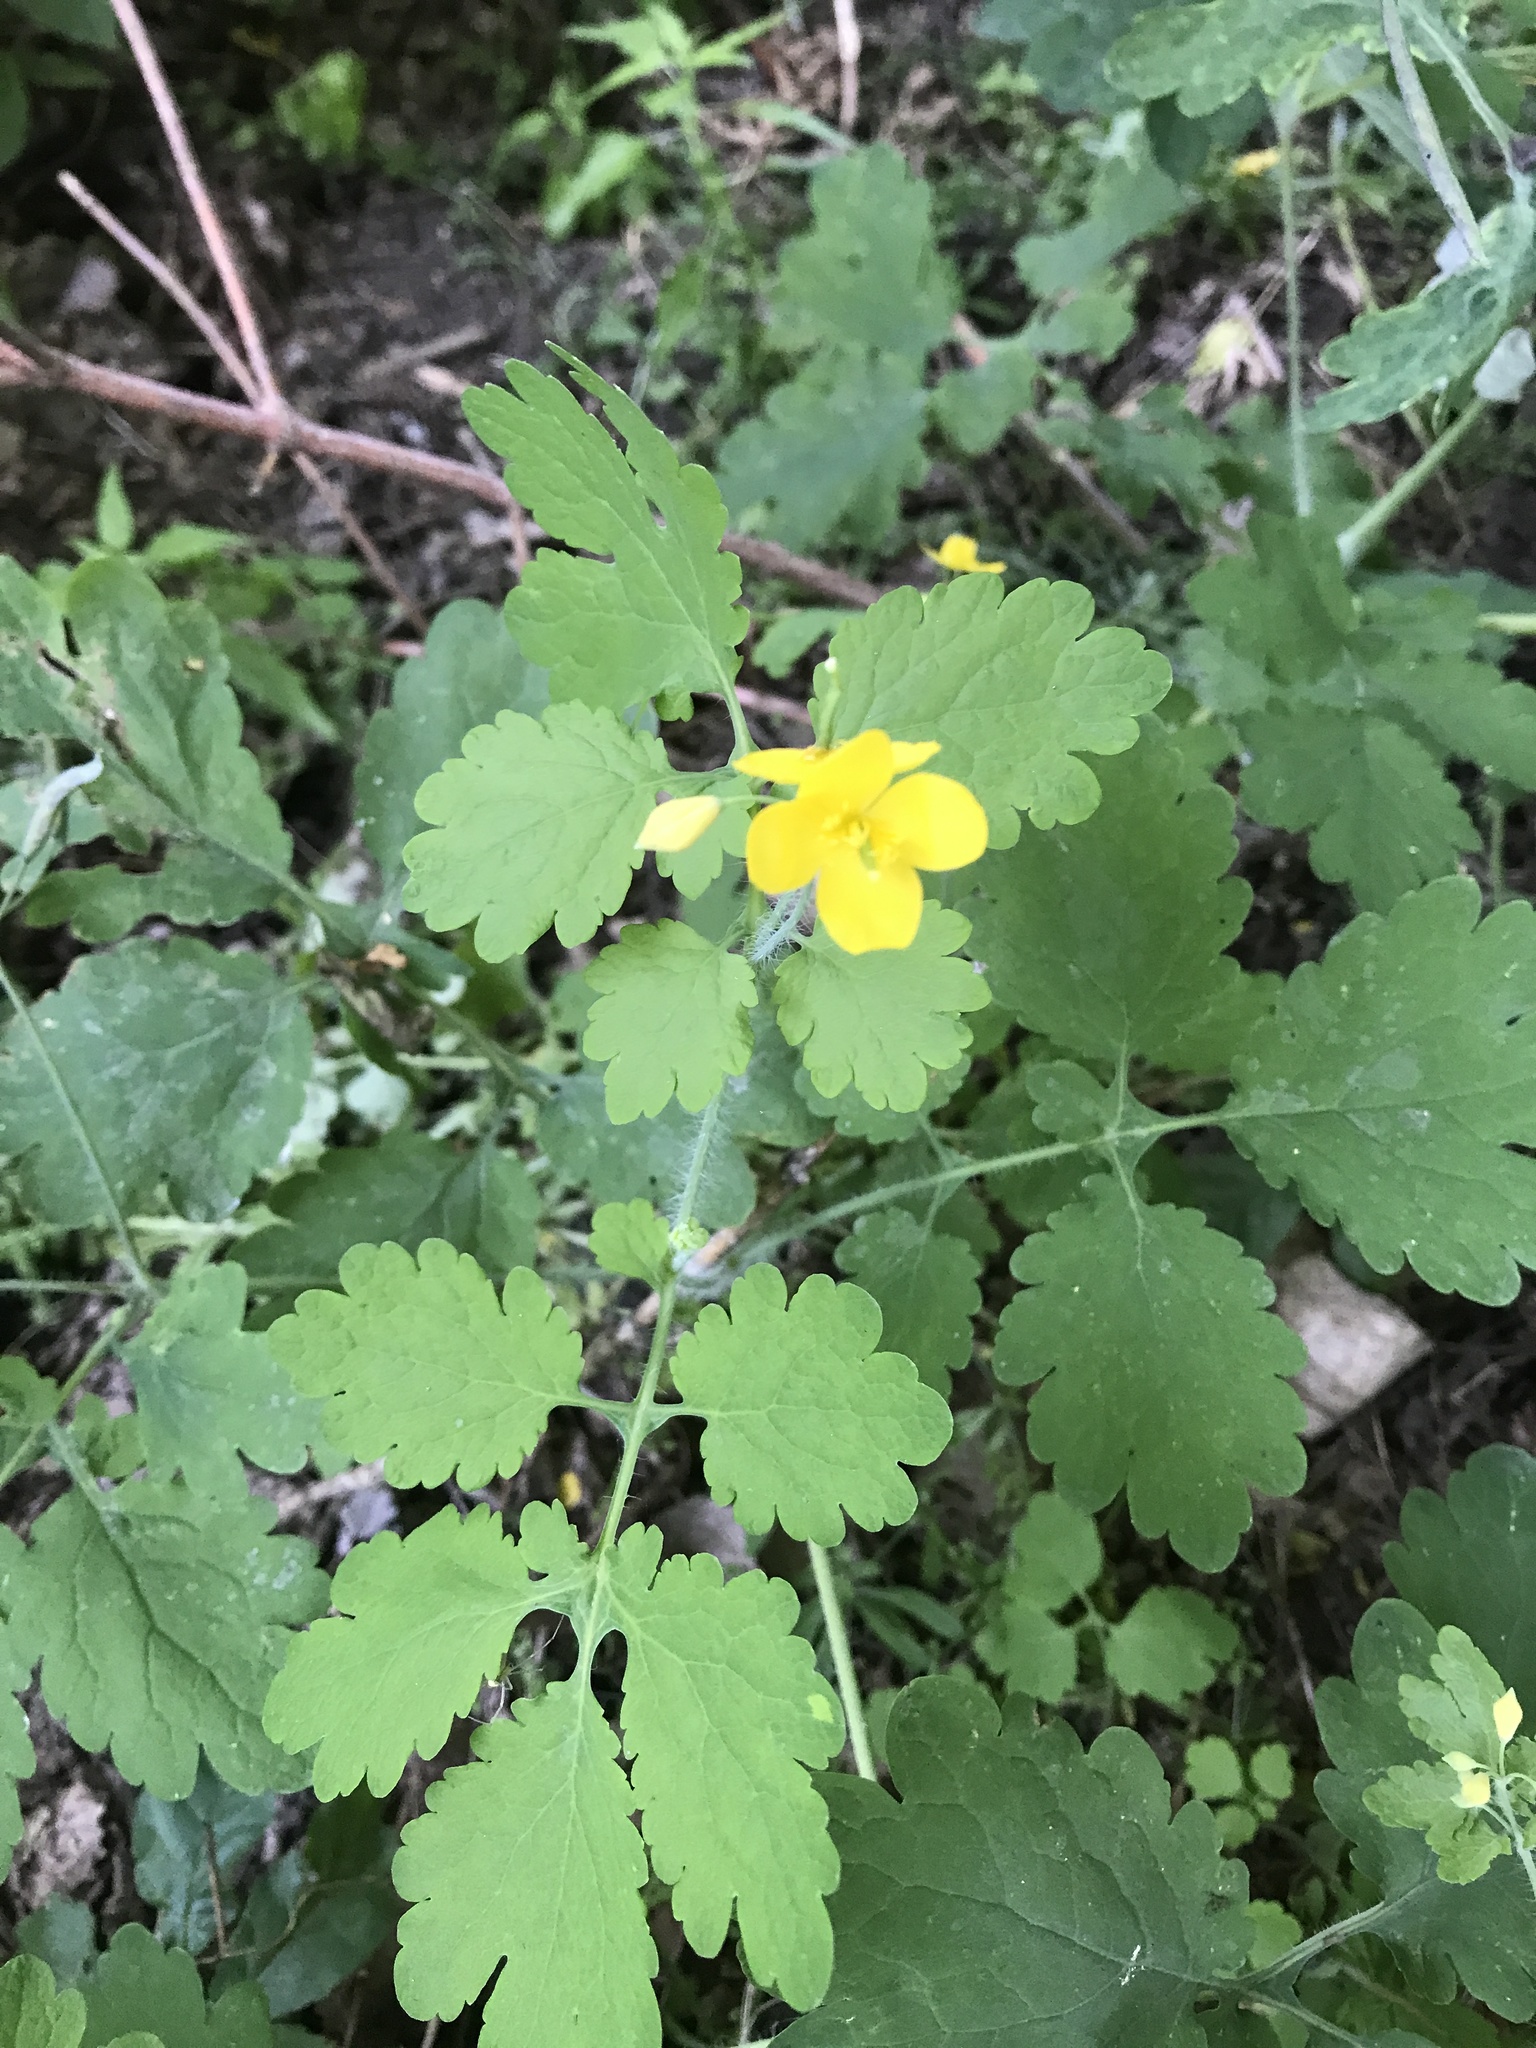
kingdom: Plantae
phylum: Tracheophyta
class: Magnoliopsida
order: Ranunculales
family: Papaveraceae
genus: Chelidonium
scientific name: Chelidonium majus
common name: Greater celandine
